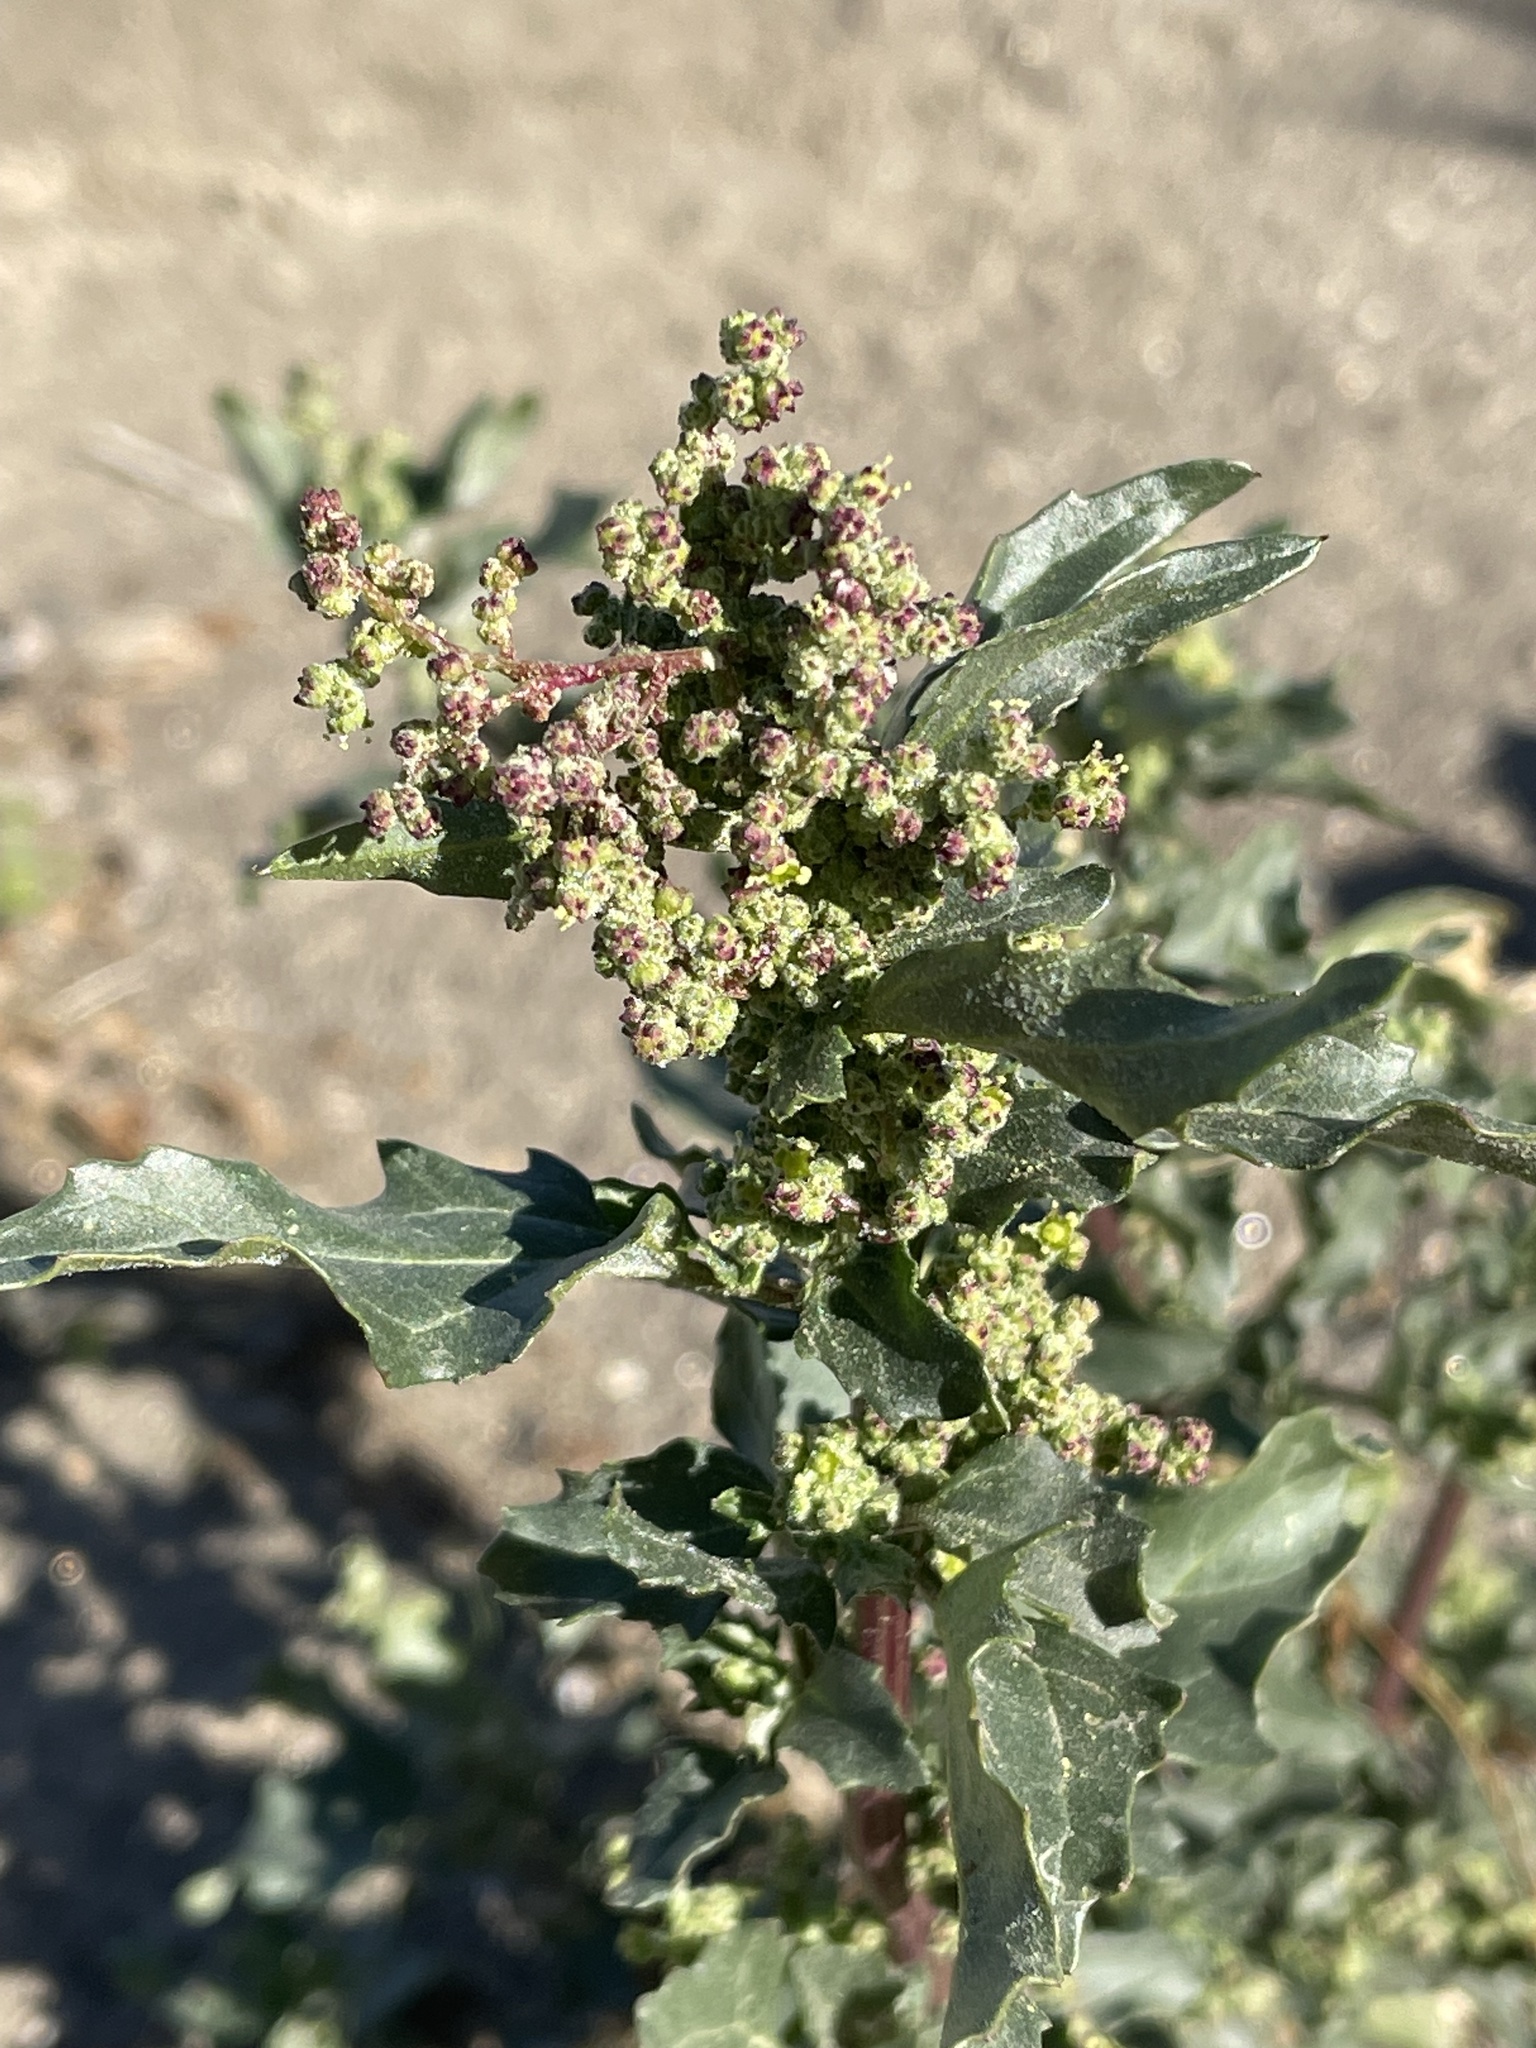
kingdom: Plantae
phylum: Tracheophyta
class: Magnoliopsida
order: Caryophyllales
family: Amaranthaceae
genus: Chenopodiastrum
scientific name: Chenopodiastrum murale
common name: Sowbane
